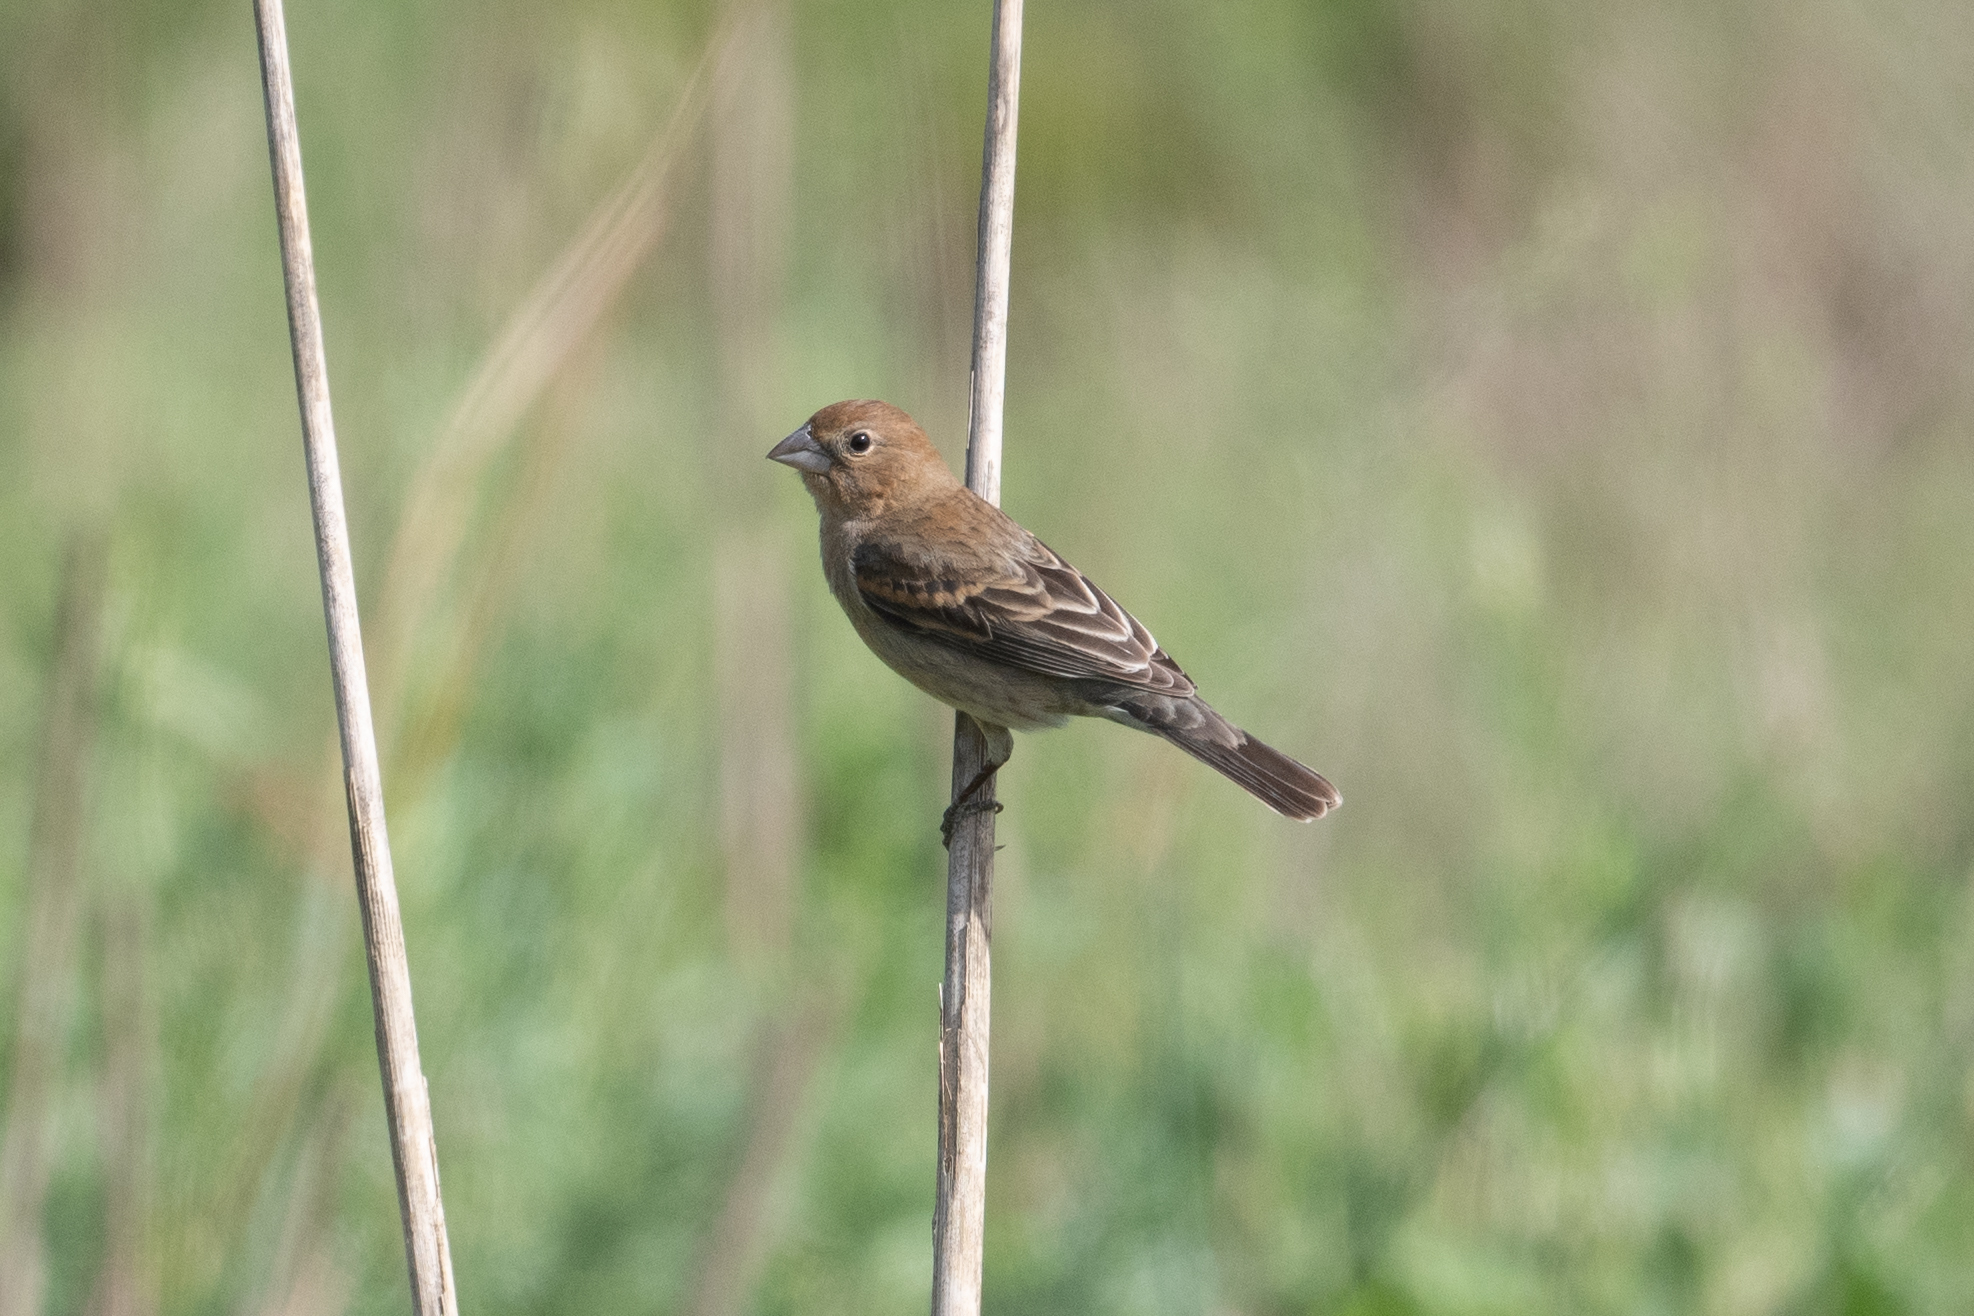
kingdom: Animalia
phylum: Chordata
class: Aves
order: Passeriformes
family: Cardinalidae
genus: Passerina
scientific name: Passerina caerulea
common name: Blue grosbeak
